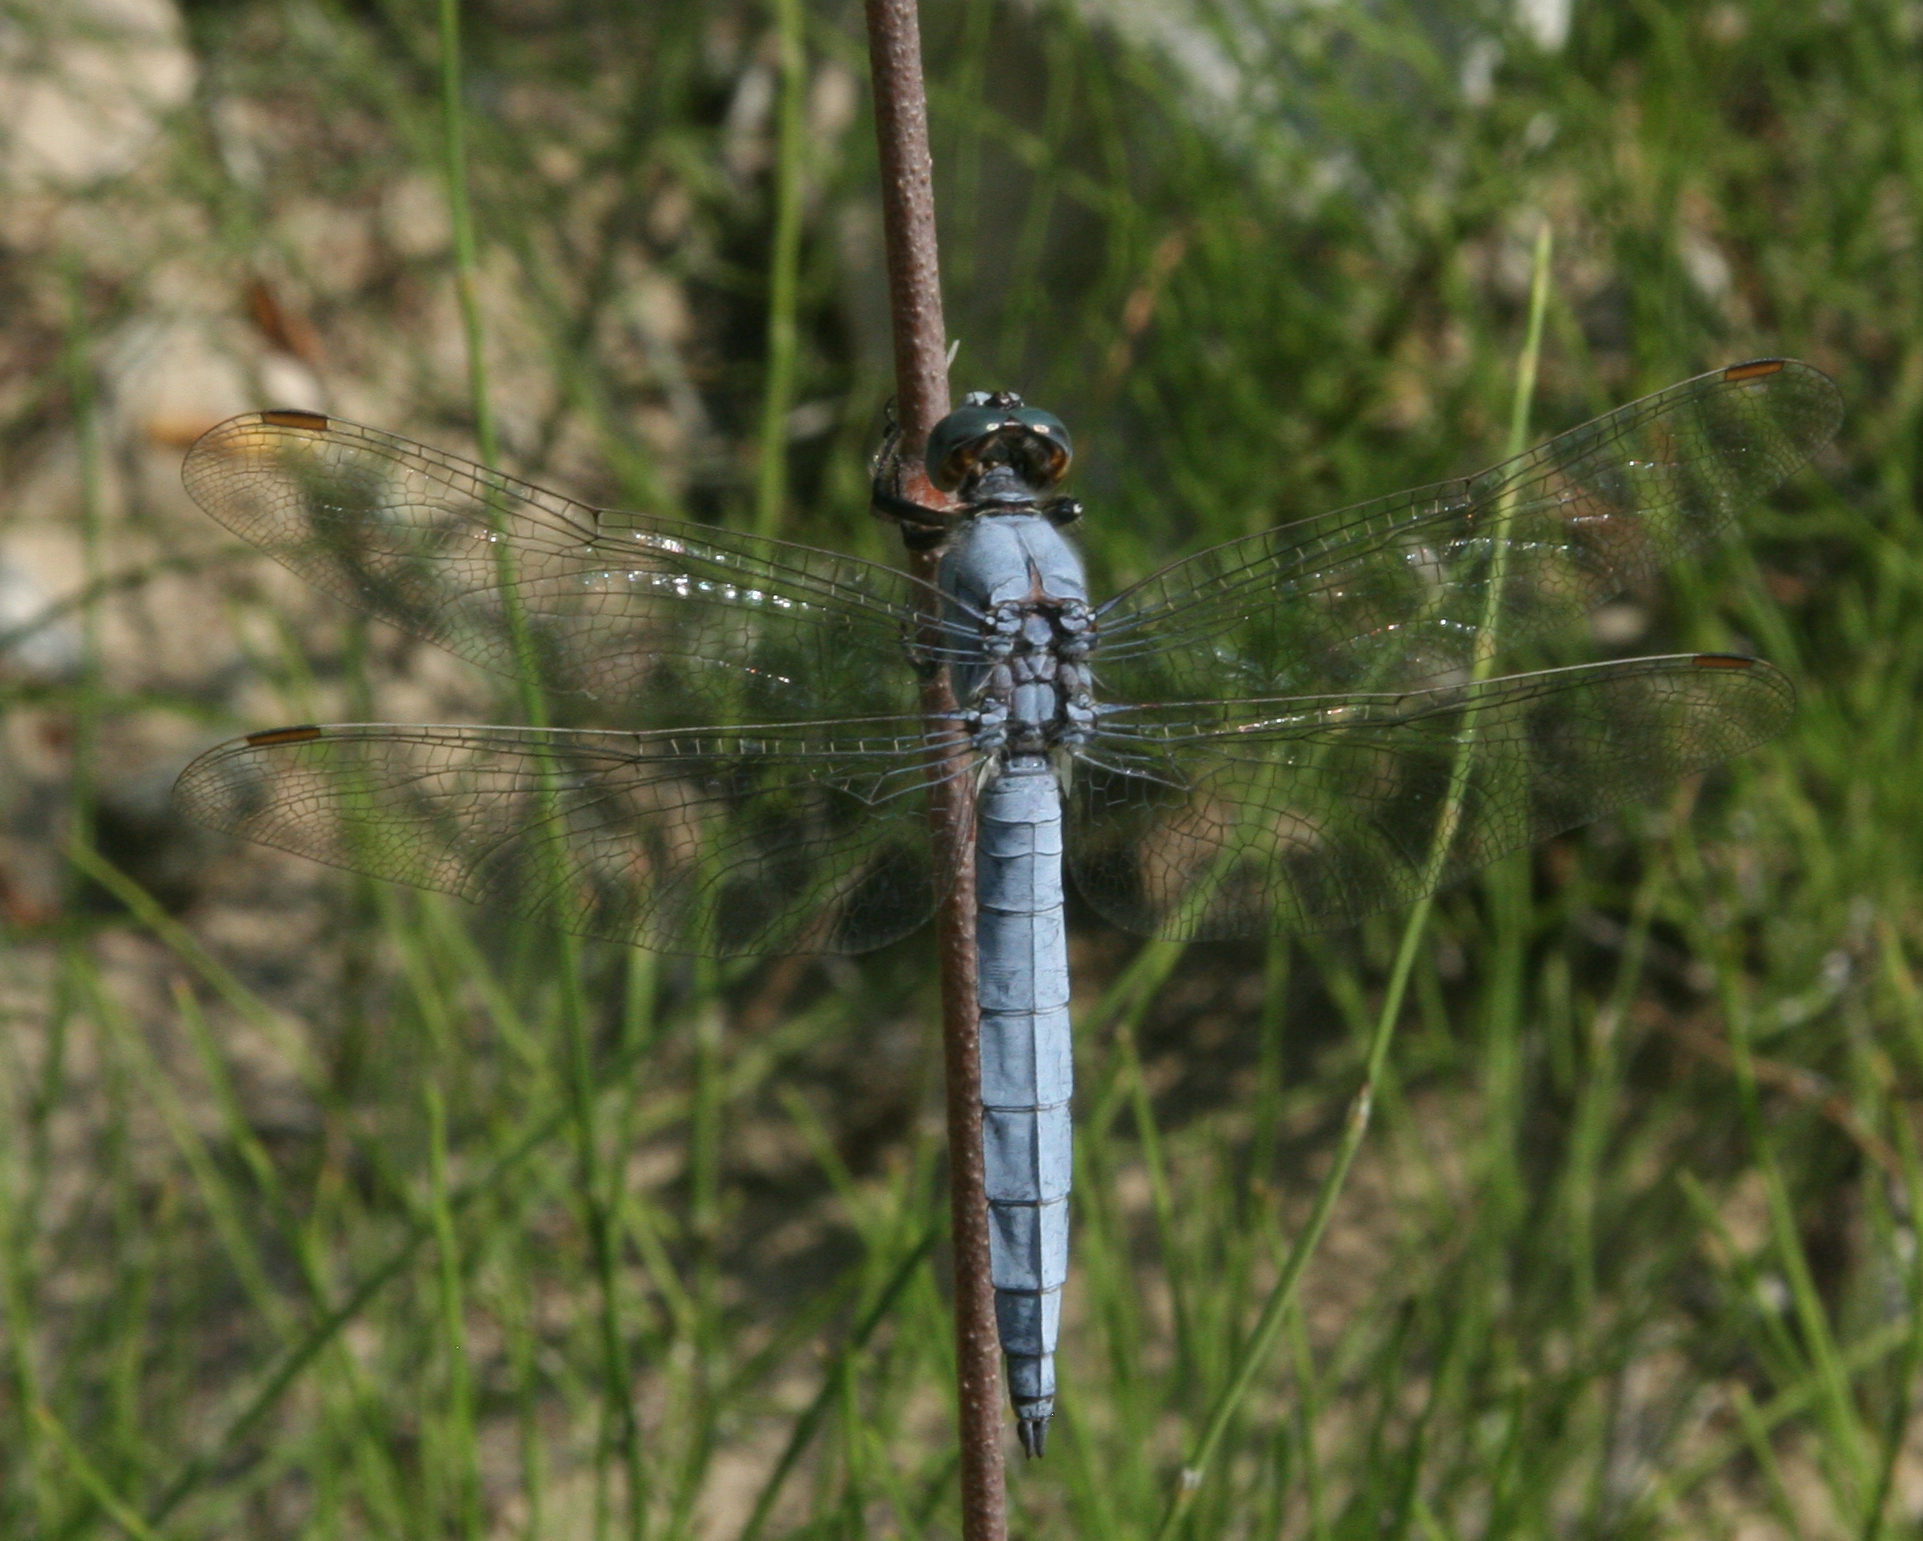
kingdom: Animalia
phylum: Arthropoda
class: Insecta
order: Odonata
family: Libellulidae
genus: Orthetrum
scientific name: Orthetrum brunneum
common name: Southern skimmer
